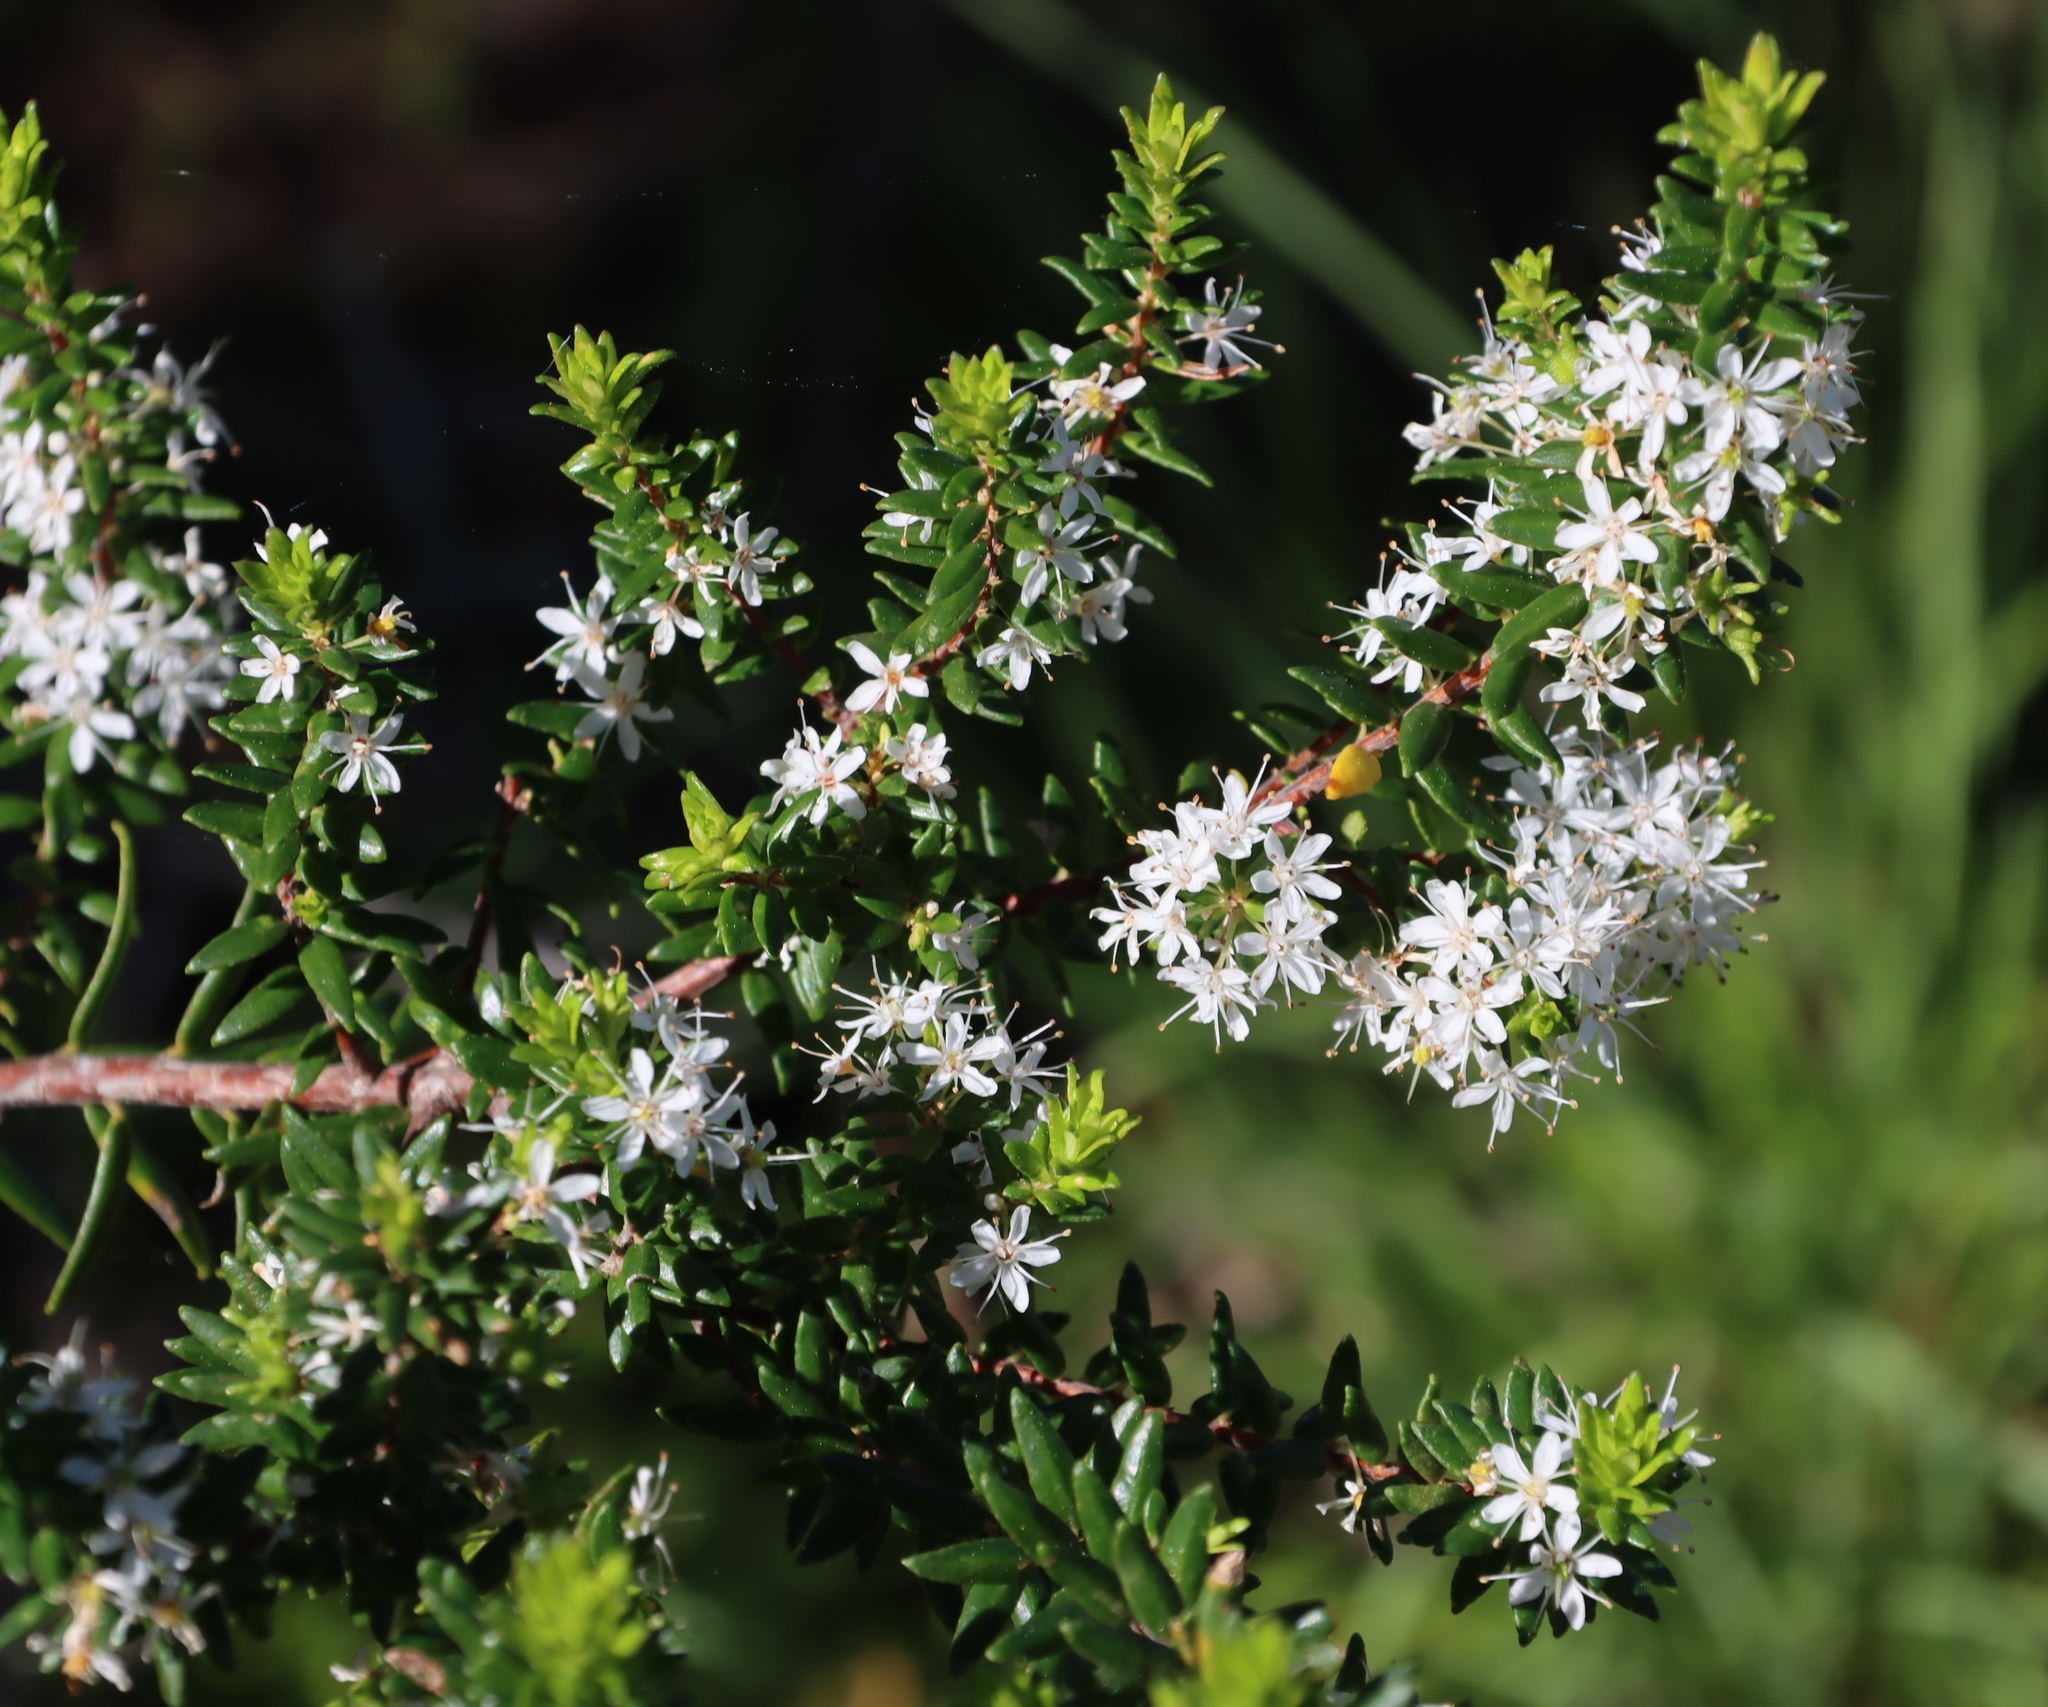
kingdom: Plantae
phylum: Tracheophyta
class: Magnoliopsida
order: Sapindales
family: Rutaceae
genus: Agathosma
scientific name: Agathosma ovata
